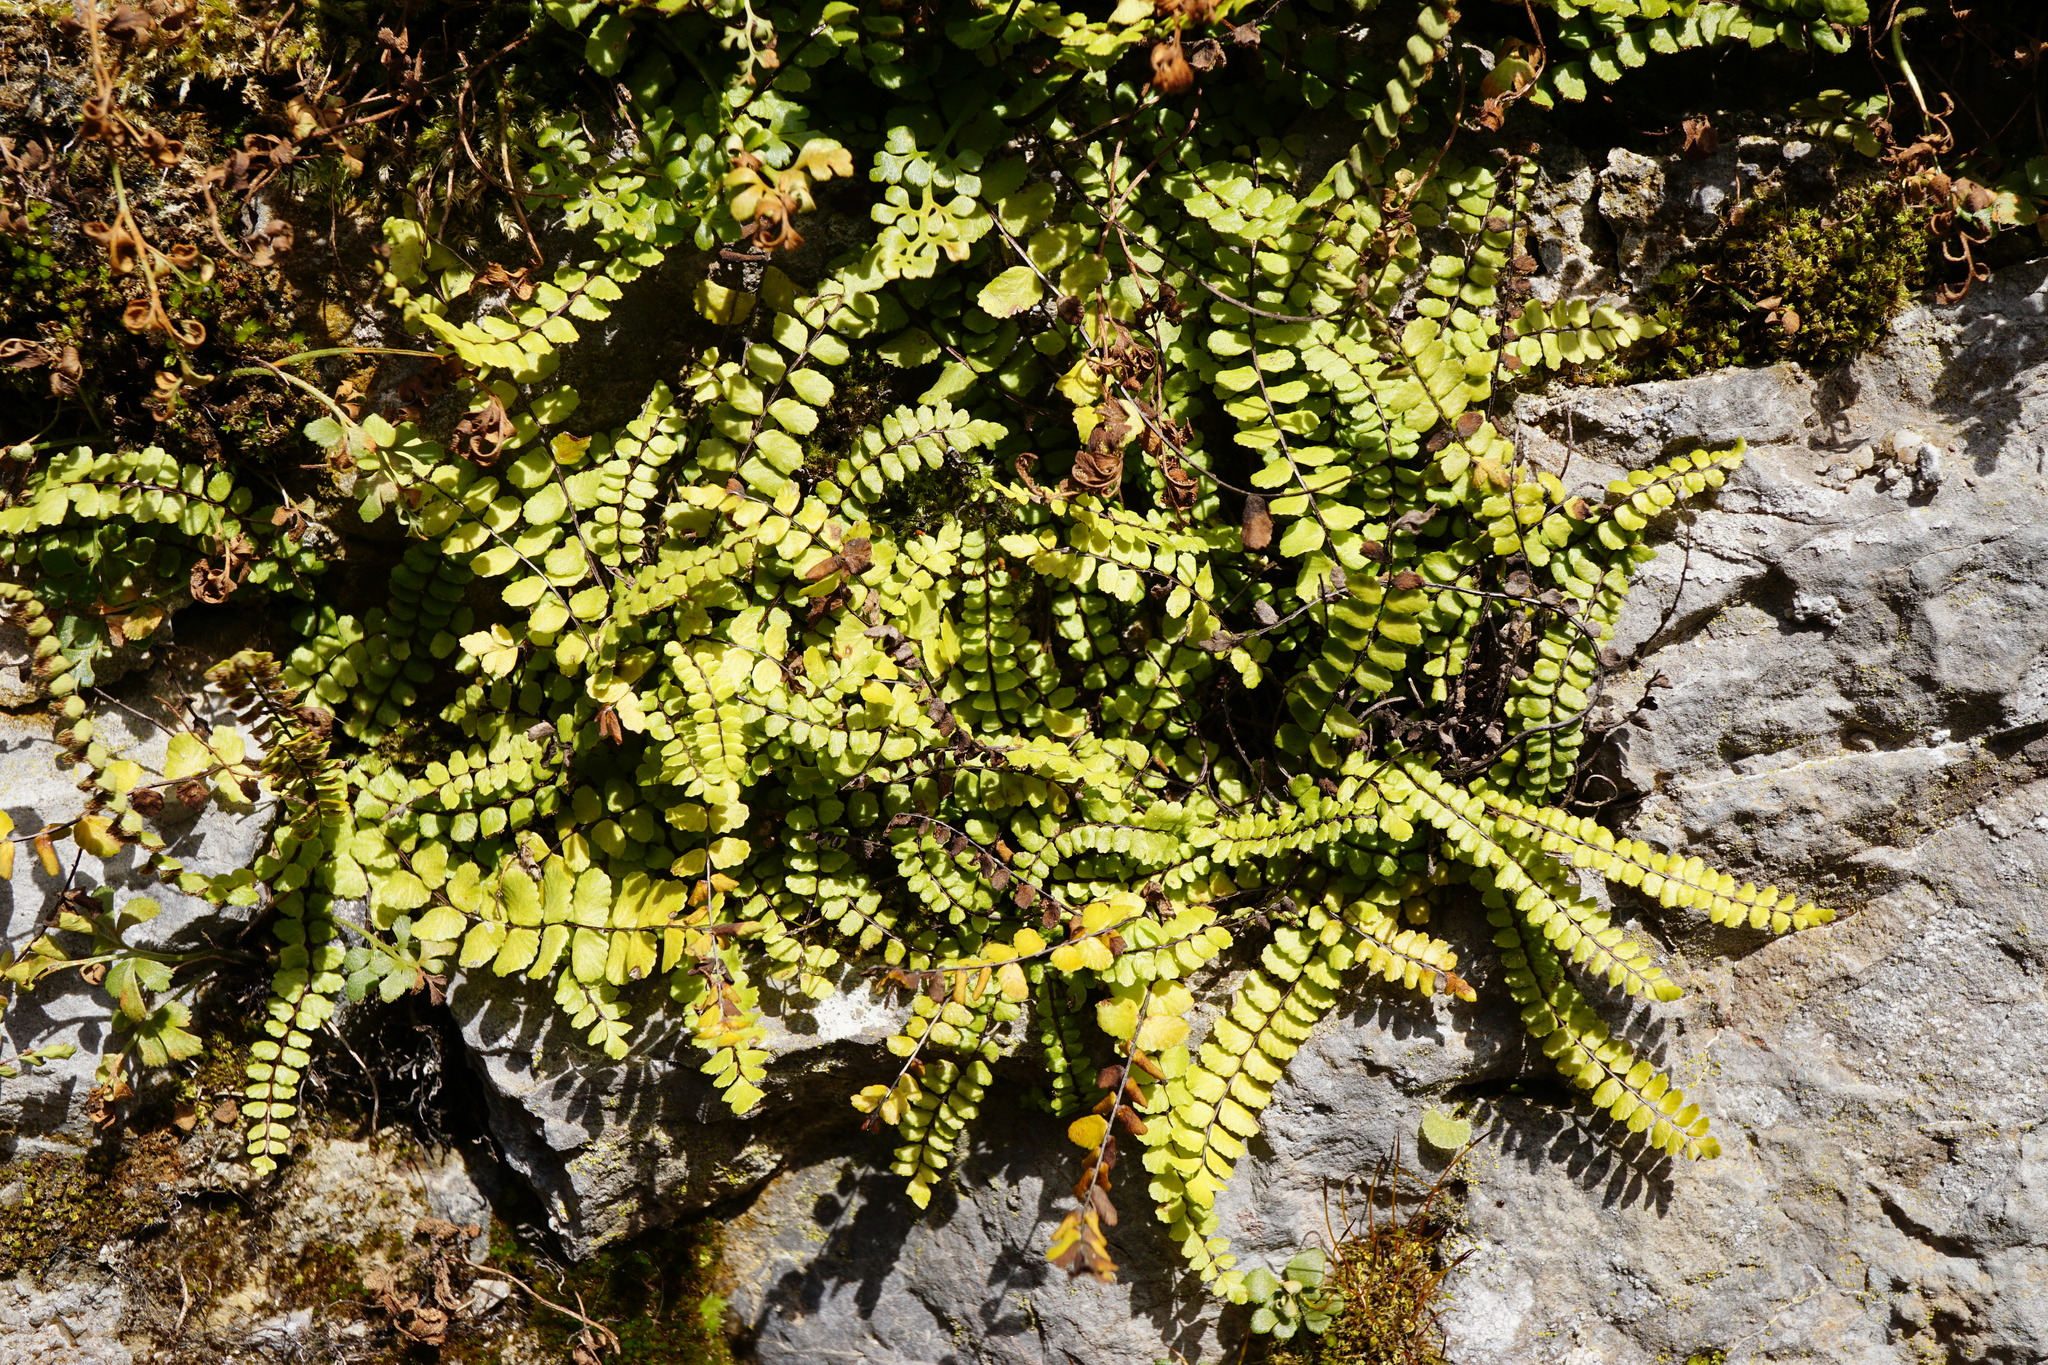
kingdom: Plantae
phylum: Tracheophyta
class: Polypodiopsida
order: Polypodiales
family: Aspleniaceae
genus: Asplenium
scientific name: Asplenium trichomanes
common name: Maidenhair spleenwort
